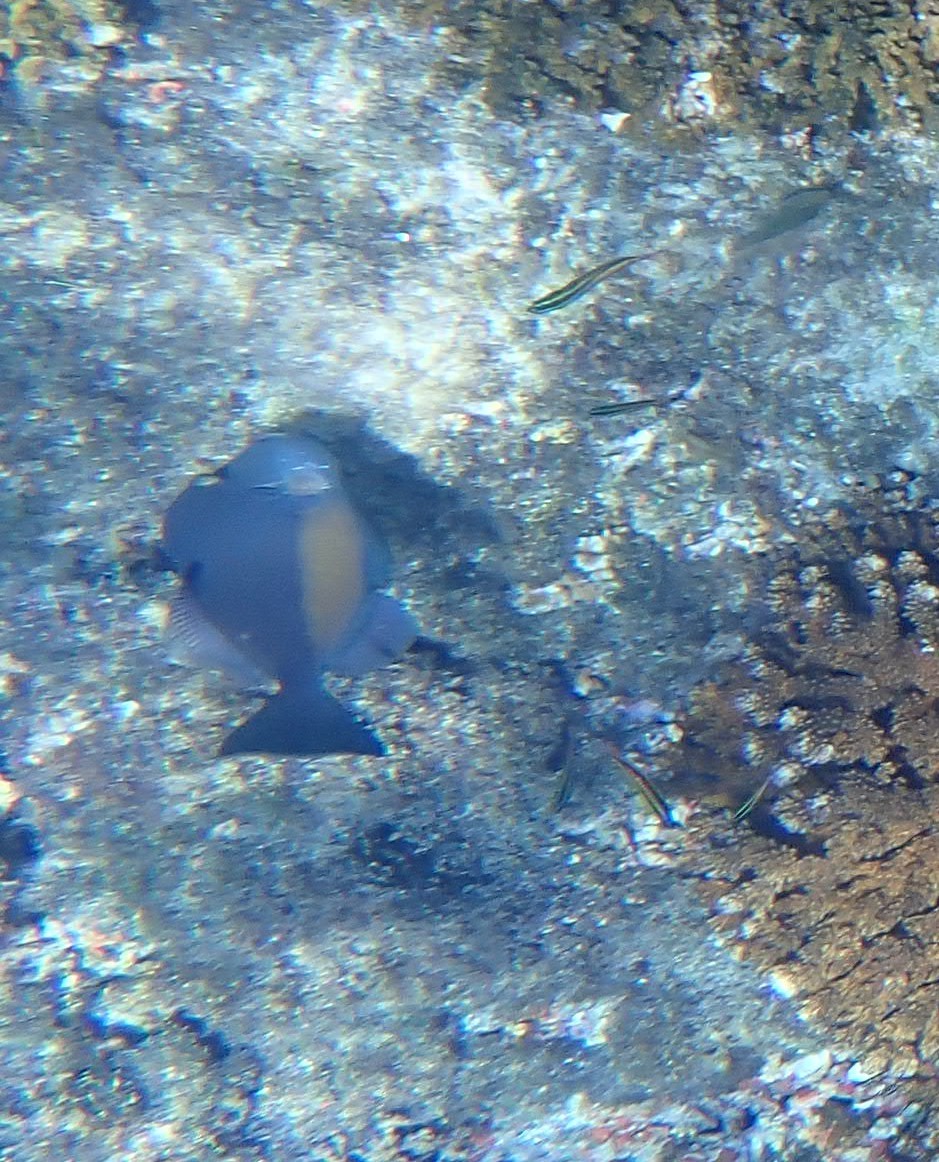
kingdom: Animalia
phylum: Chordata
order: Tetraodontiformes
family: Balistidae
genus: Sufflamen
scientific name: Sufflamen verres
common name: Orangeside triggerfish
